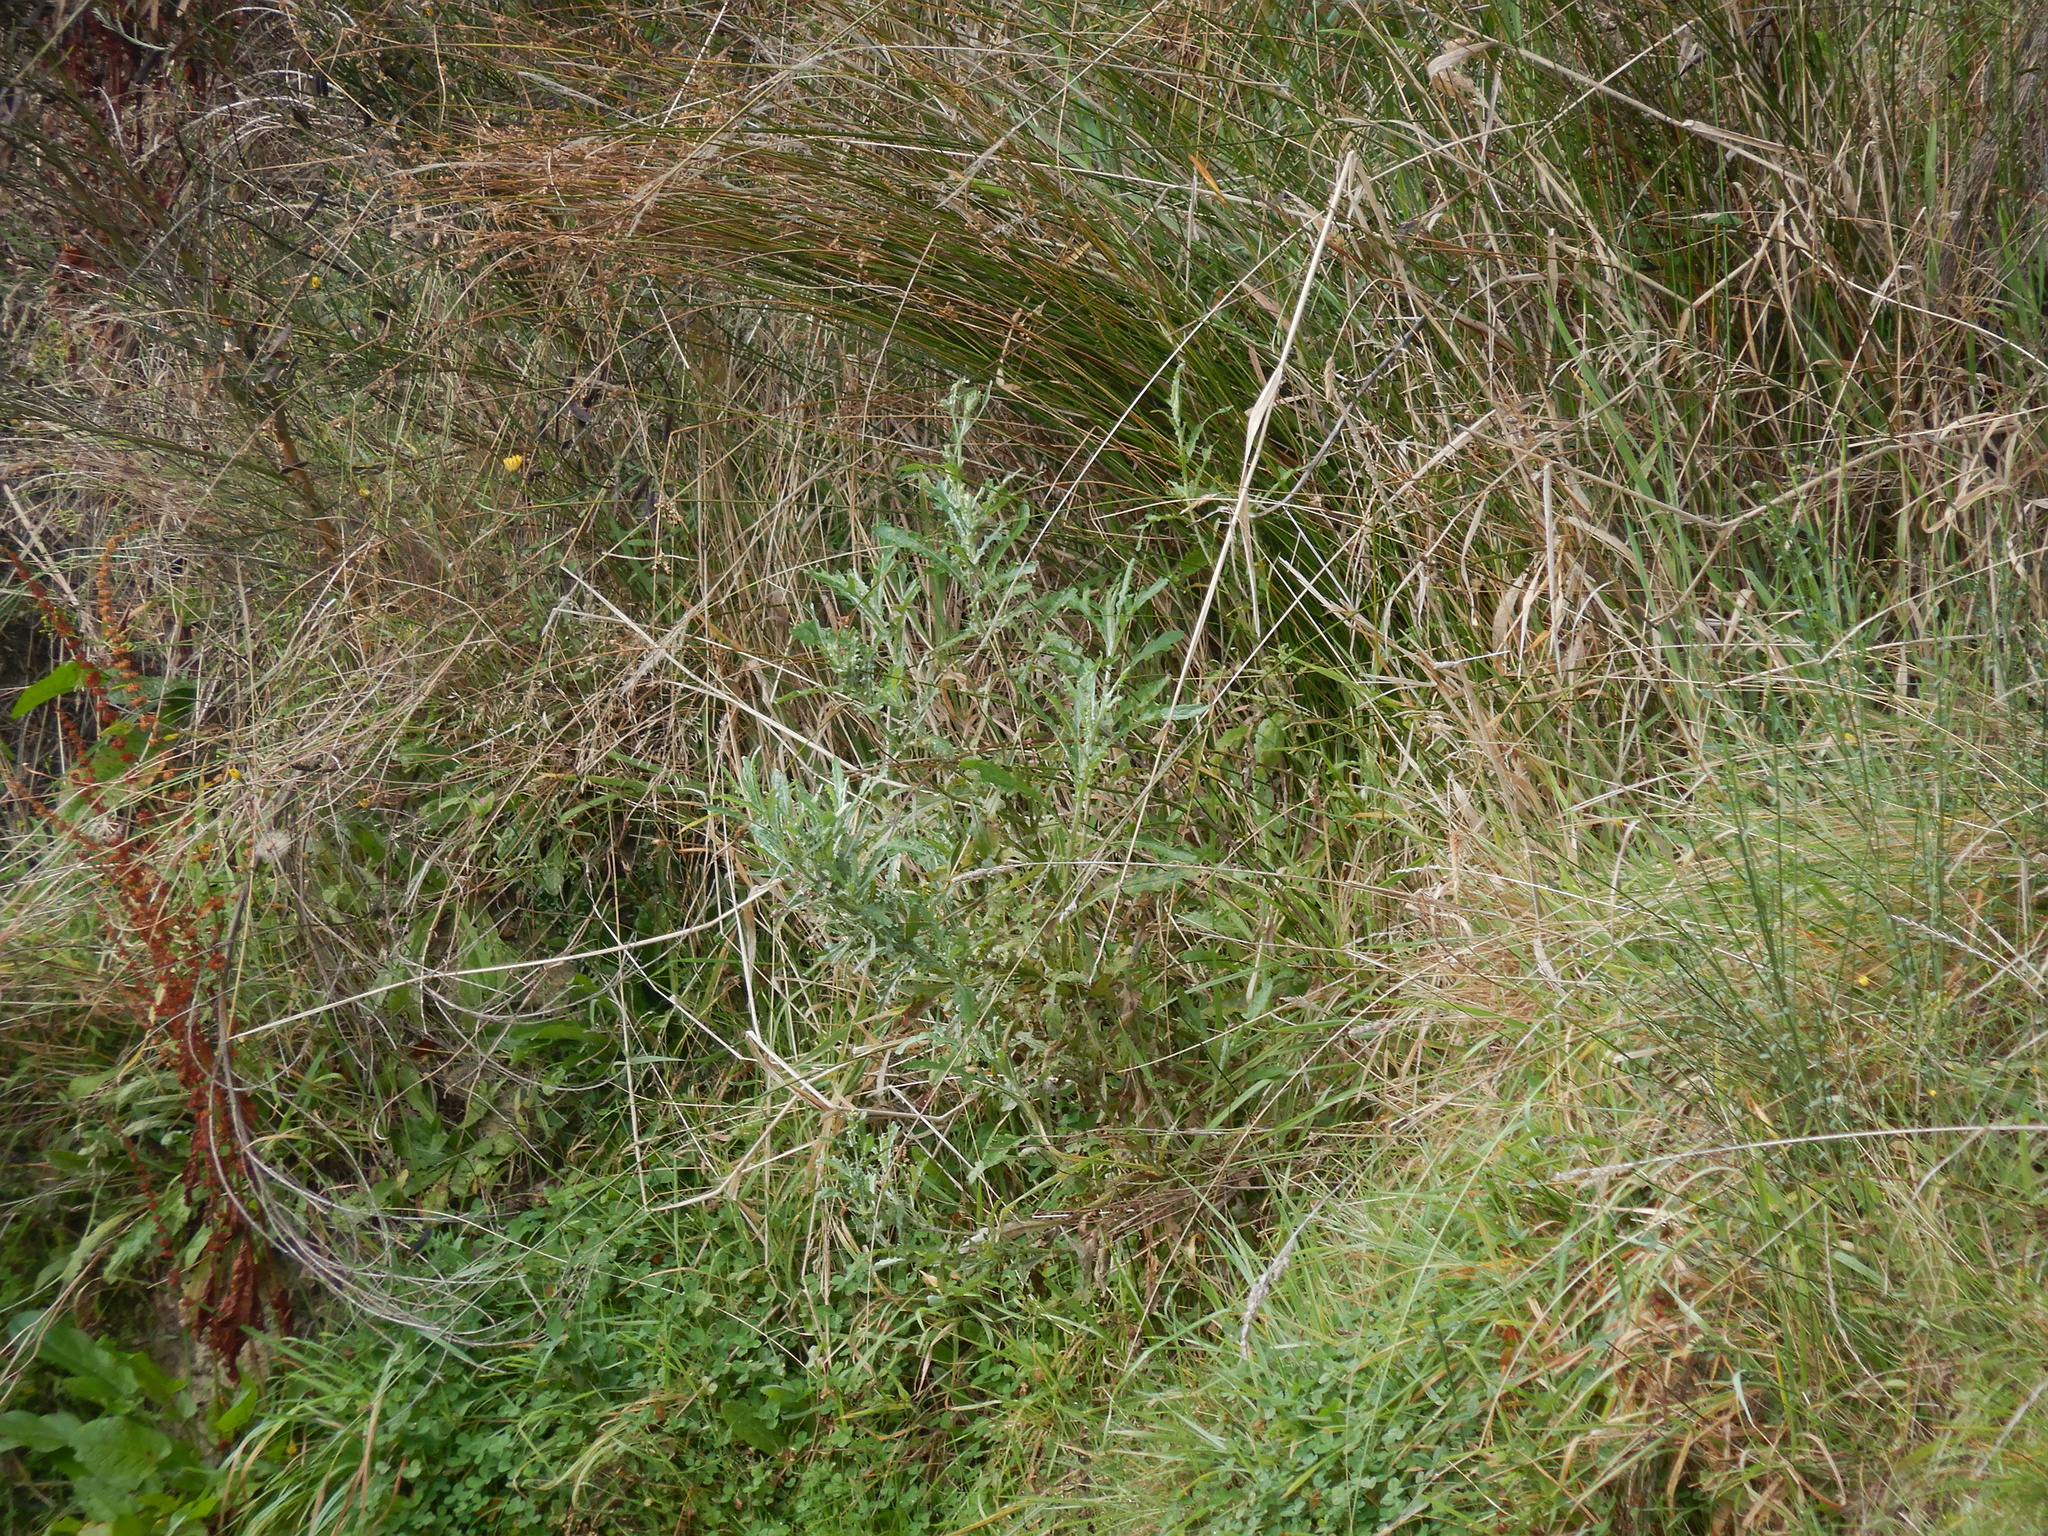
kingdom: Plantae
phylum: Tracheophyta
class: Magnoliopsida
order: Asterales
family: Asteraceae
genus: Senecio
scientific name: Senecio glomeratus
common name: Cutleaf burnweed
